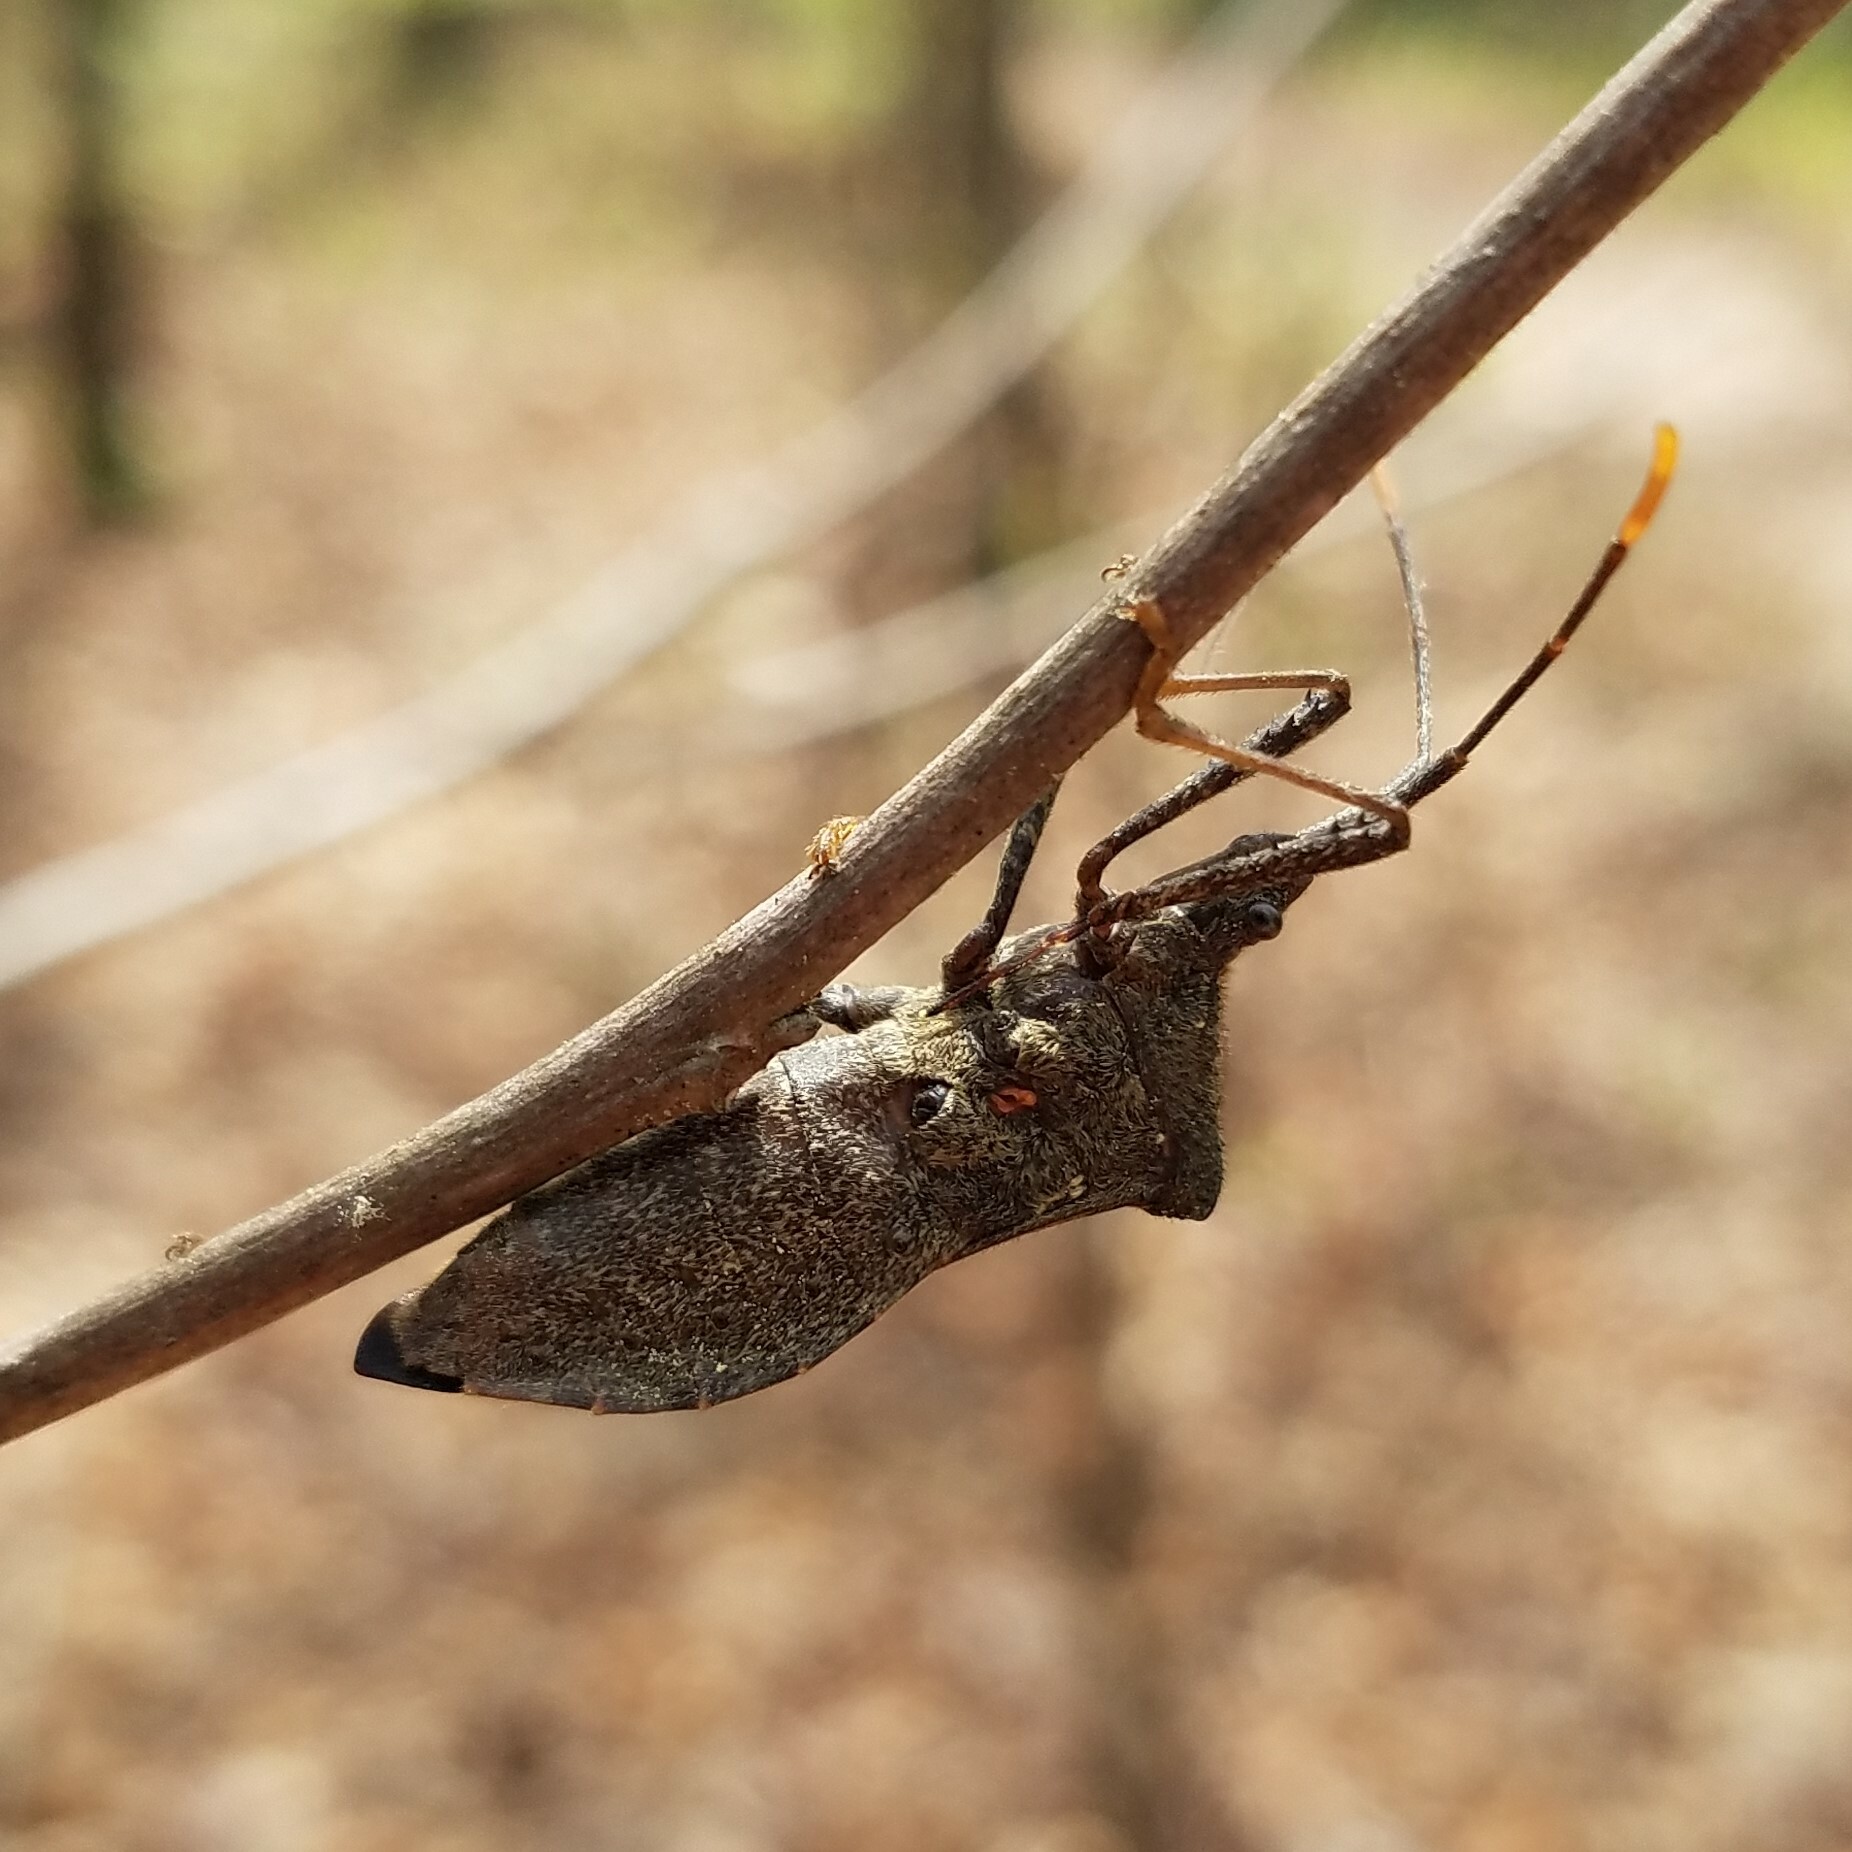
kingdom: Animalia
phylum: Arthropoda
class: Insecta
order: Hemiptera
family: Coreidae
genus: Acanthocephala
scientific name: Acanthocephala terminalis
